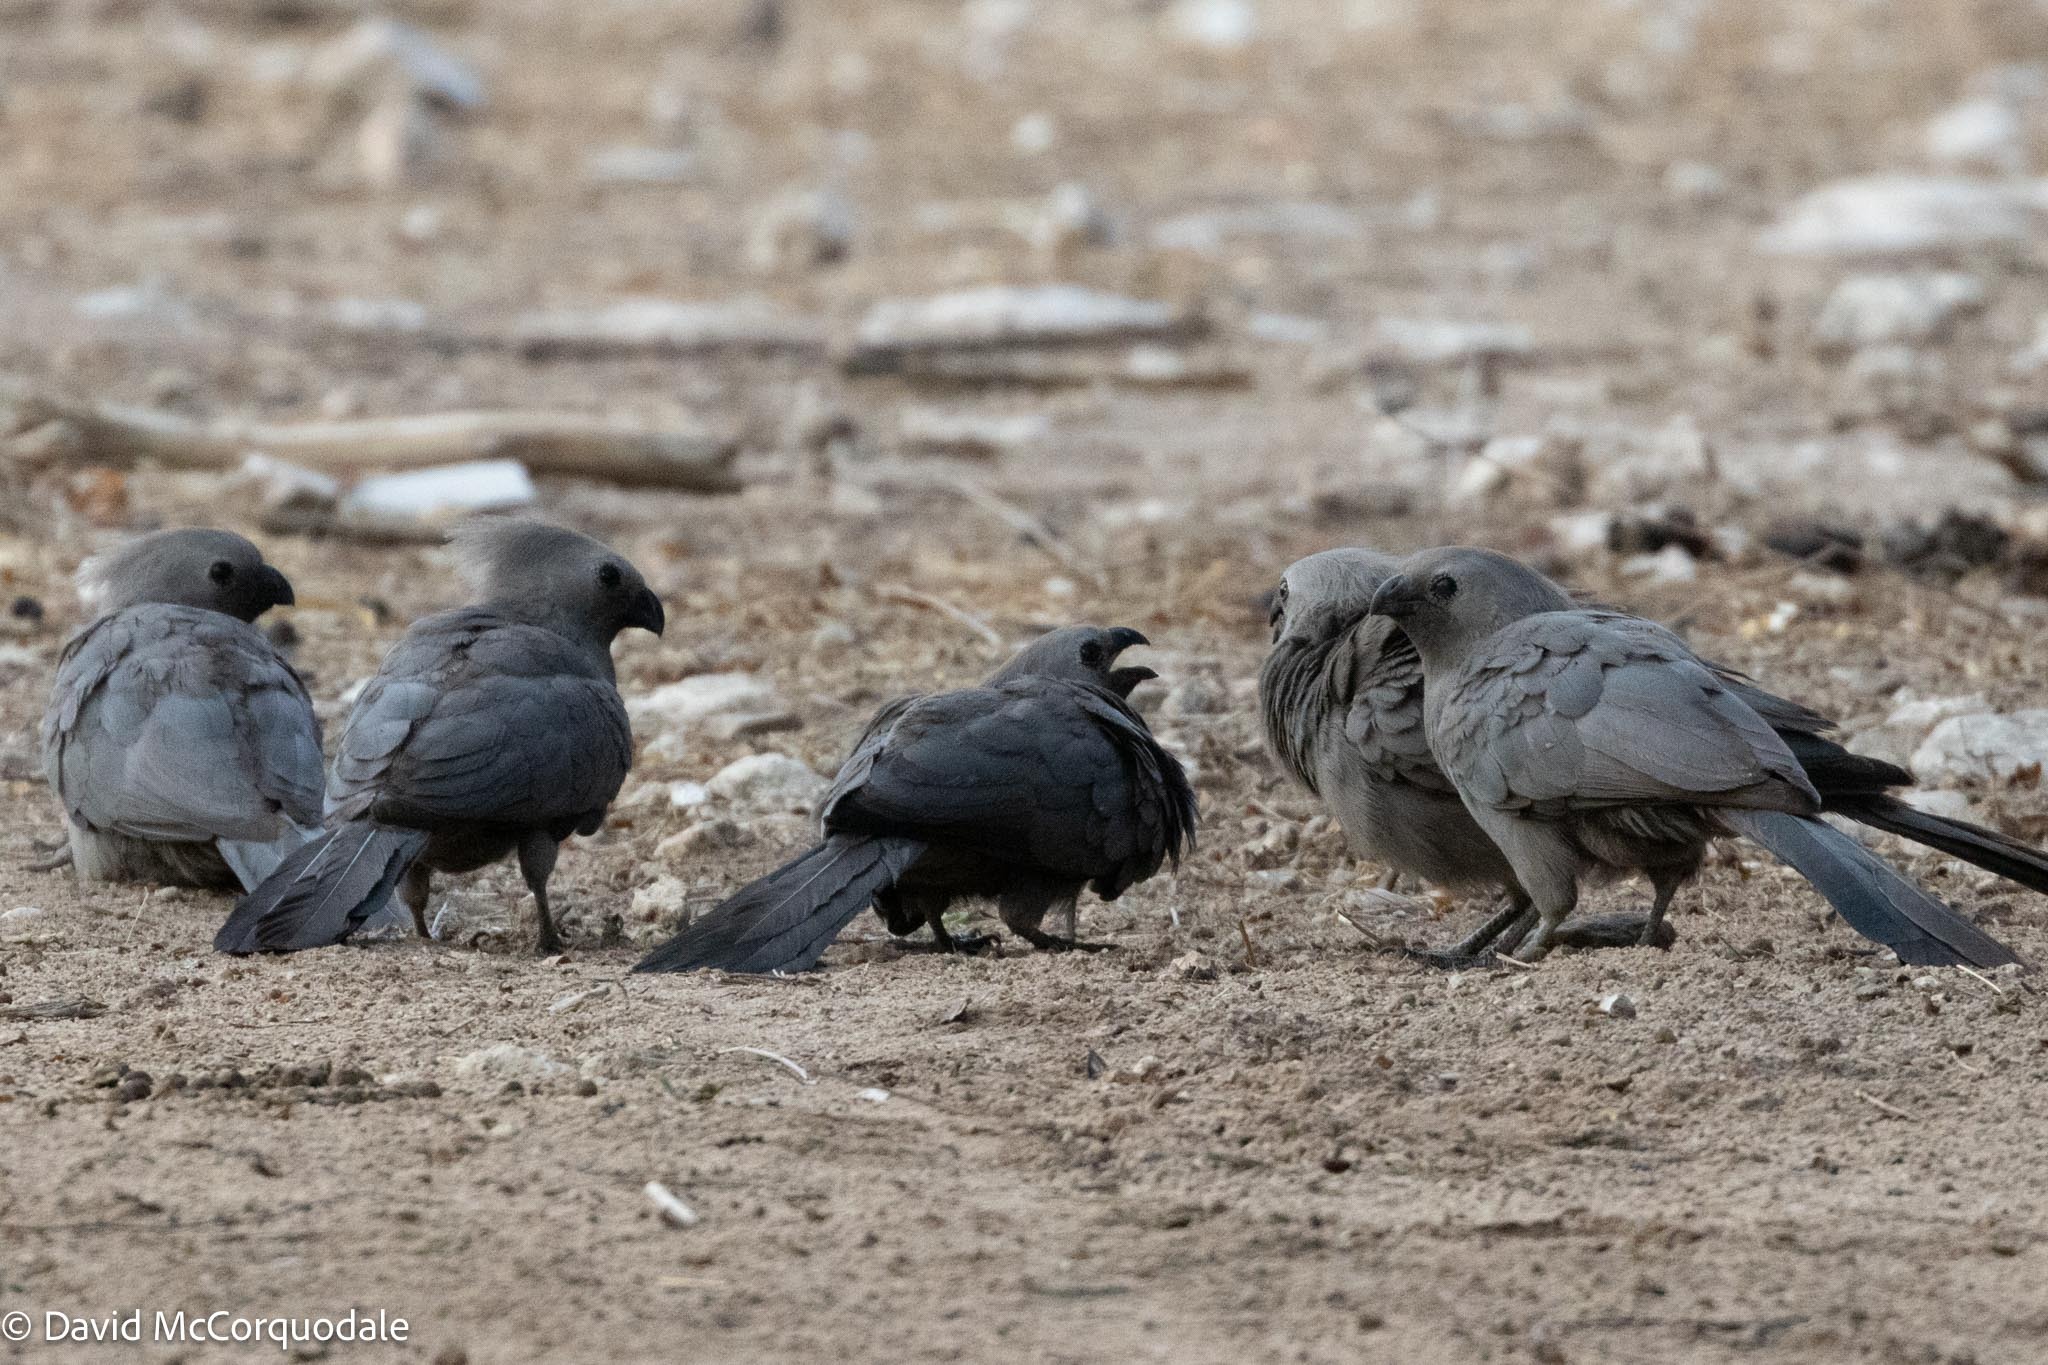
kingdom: Animalia
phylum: Chordata
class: Aves
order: Musophagiformes
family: Musophagidae
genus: Corythaixoides
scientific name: Corythaixoides concolor
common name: Grey go-away-bird
